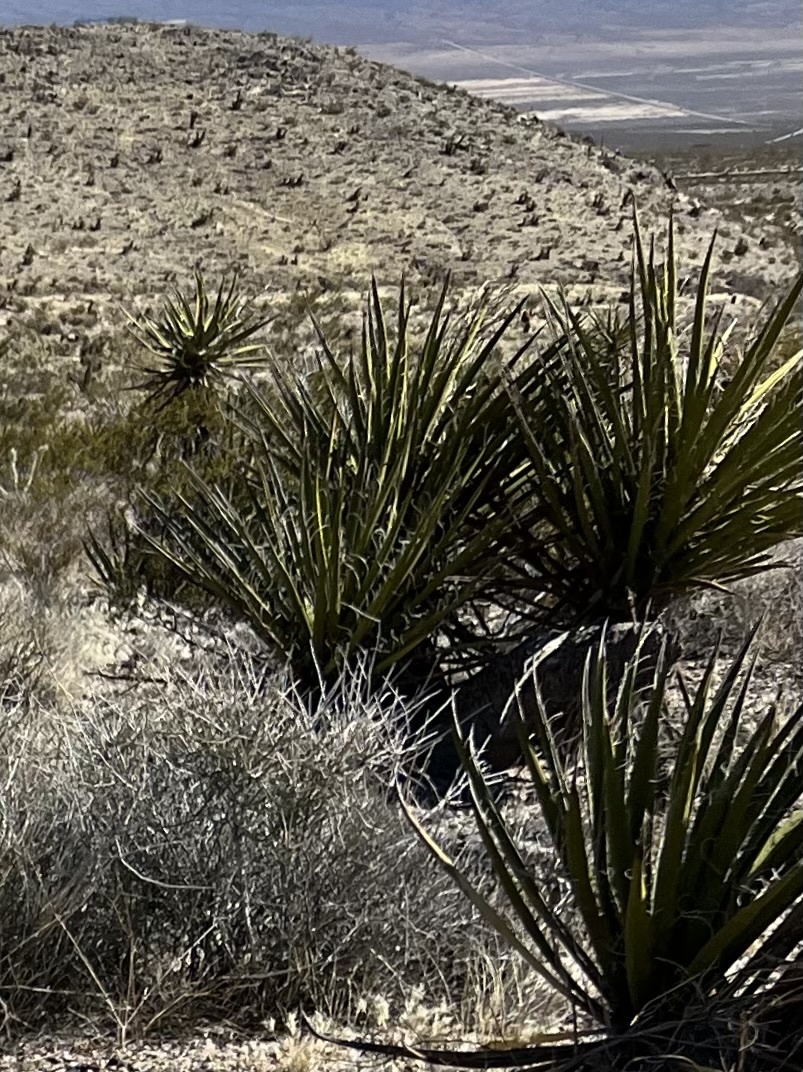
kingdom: Plantae
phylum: Tracheophyta
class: Liliopsida
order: Asparagales
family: Asparagaceae
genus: Yucca
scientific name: Yucca schidigera
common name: Mojave yucca
